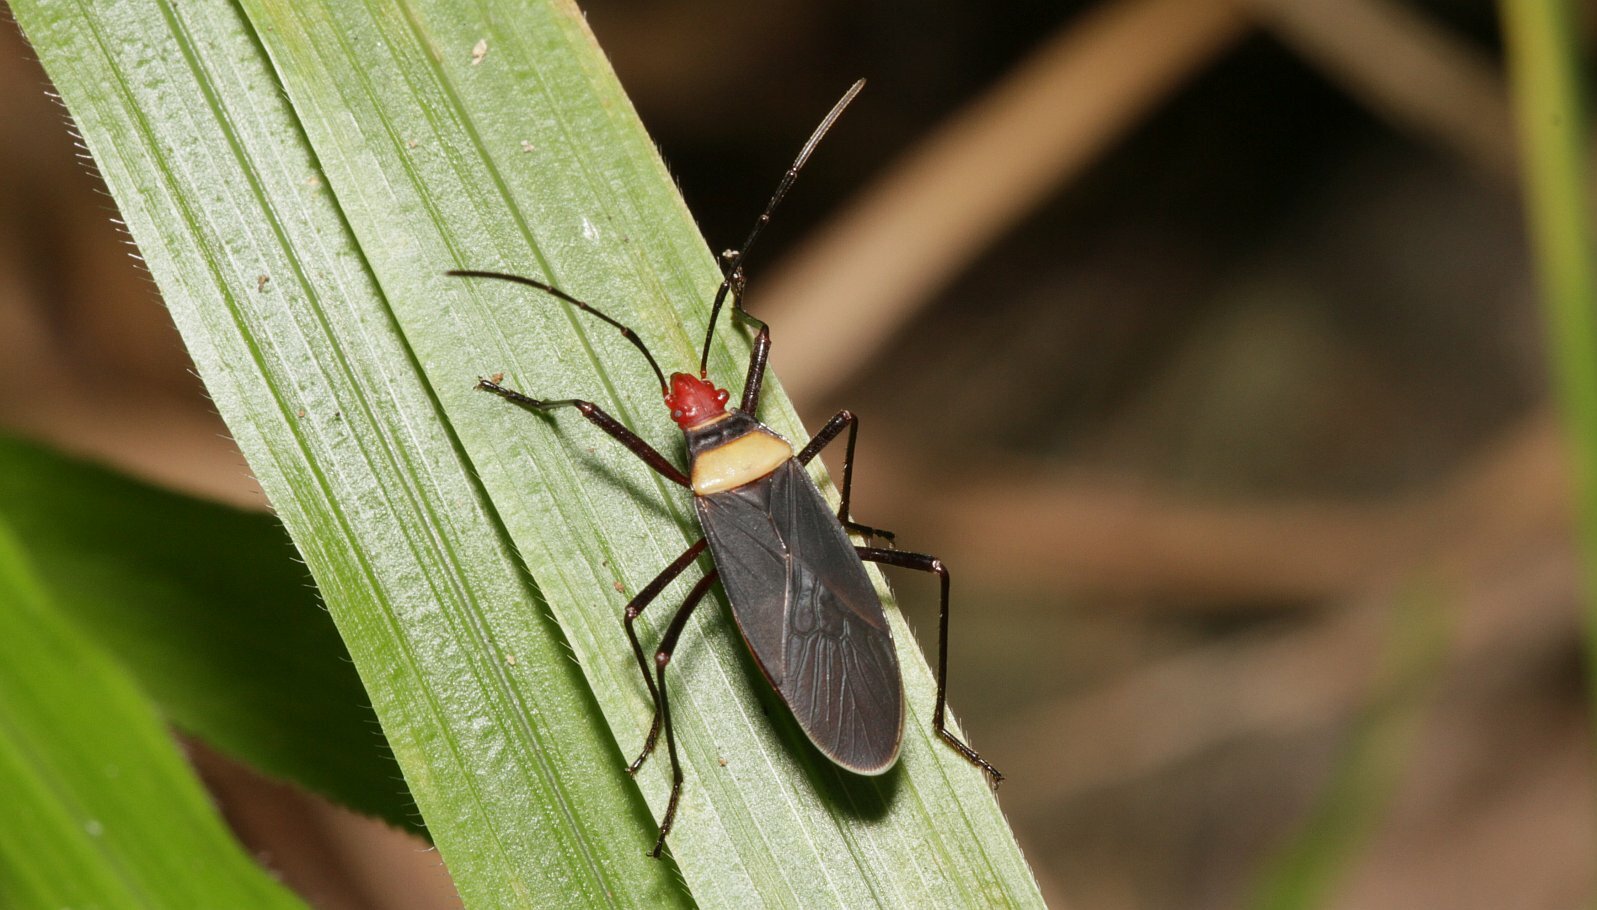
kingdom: Animalia
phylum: Arthropoda
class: Insecta
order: Hemiptera
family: Pyrrhocoridae
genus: Dysdercus
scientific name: Dysdercus
